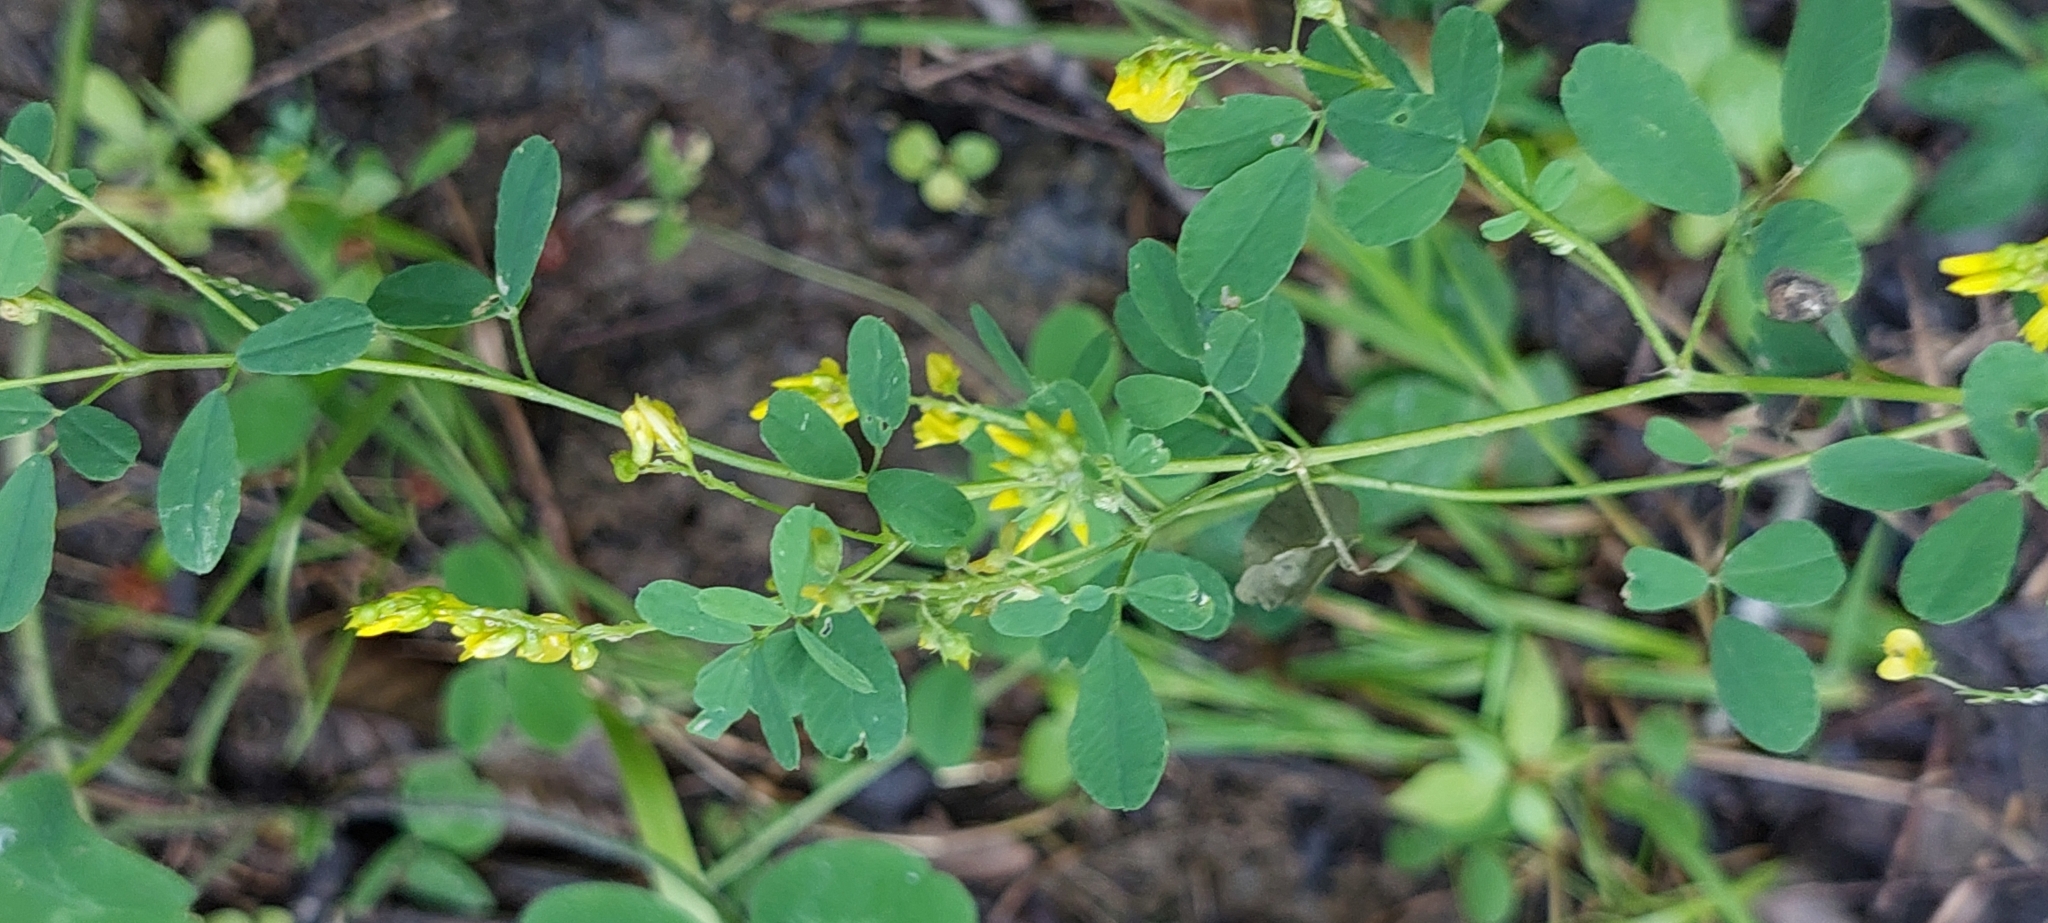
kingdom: Plantae
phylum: Tracheophyta
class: Magnoliopsida
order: Fabales
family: Fabaceae
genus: Melilotus
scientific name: Melilotus officinalis
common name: Sweetclover
